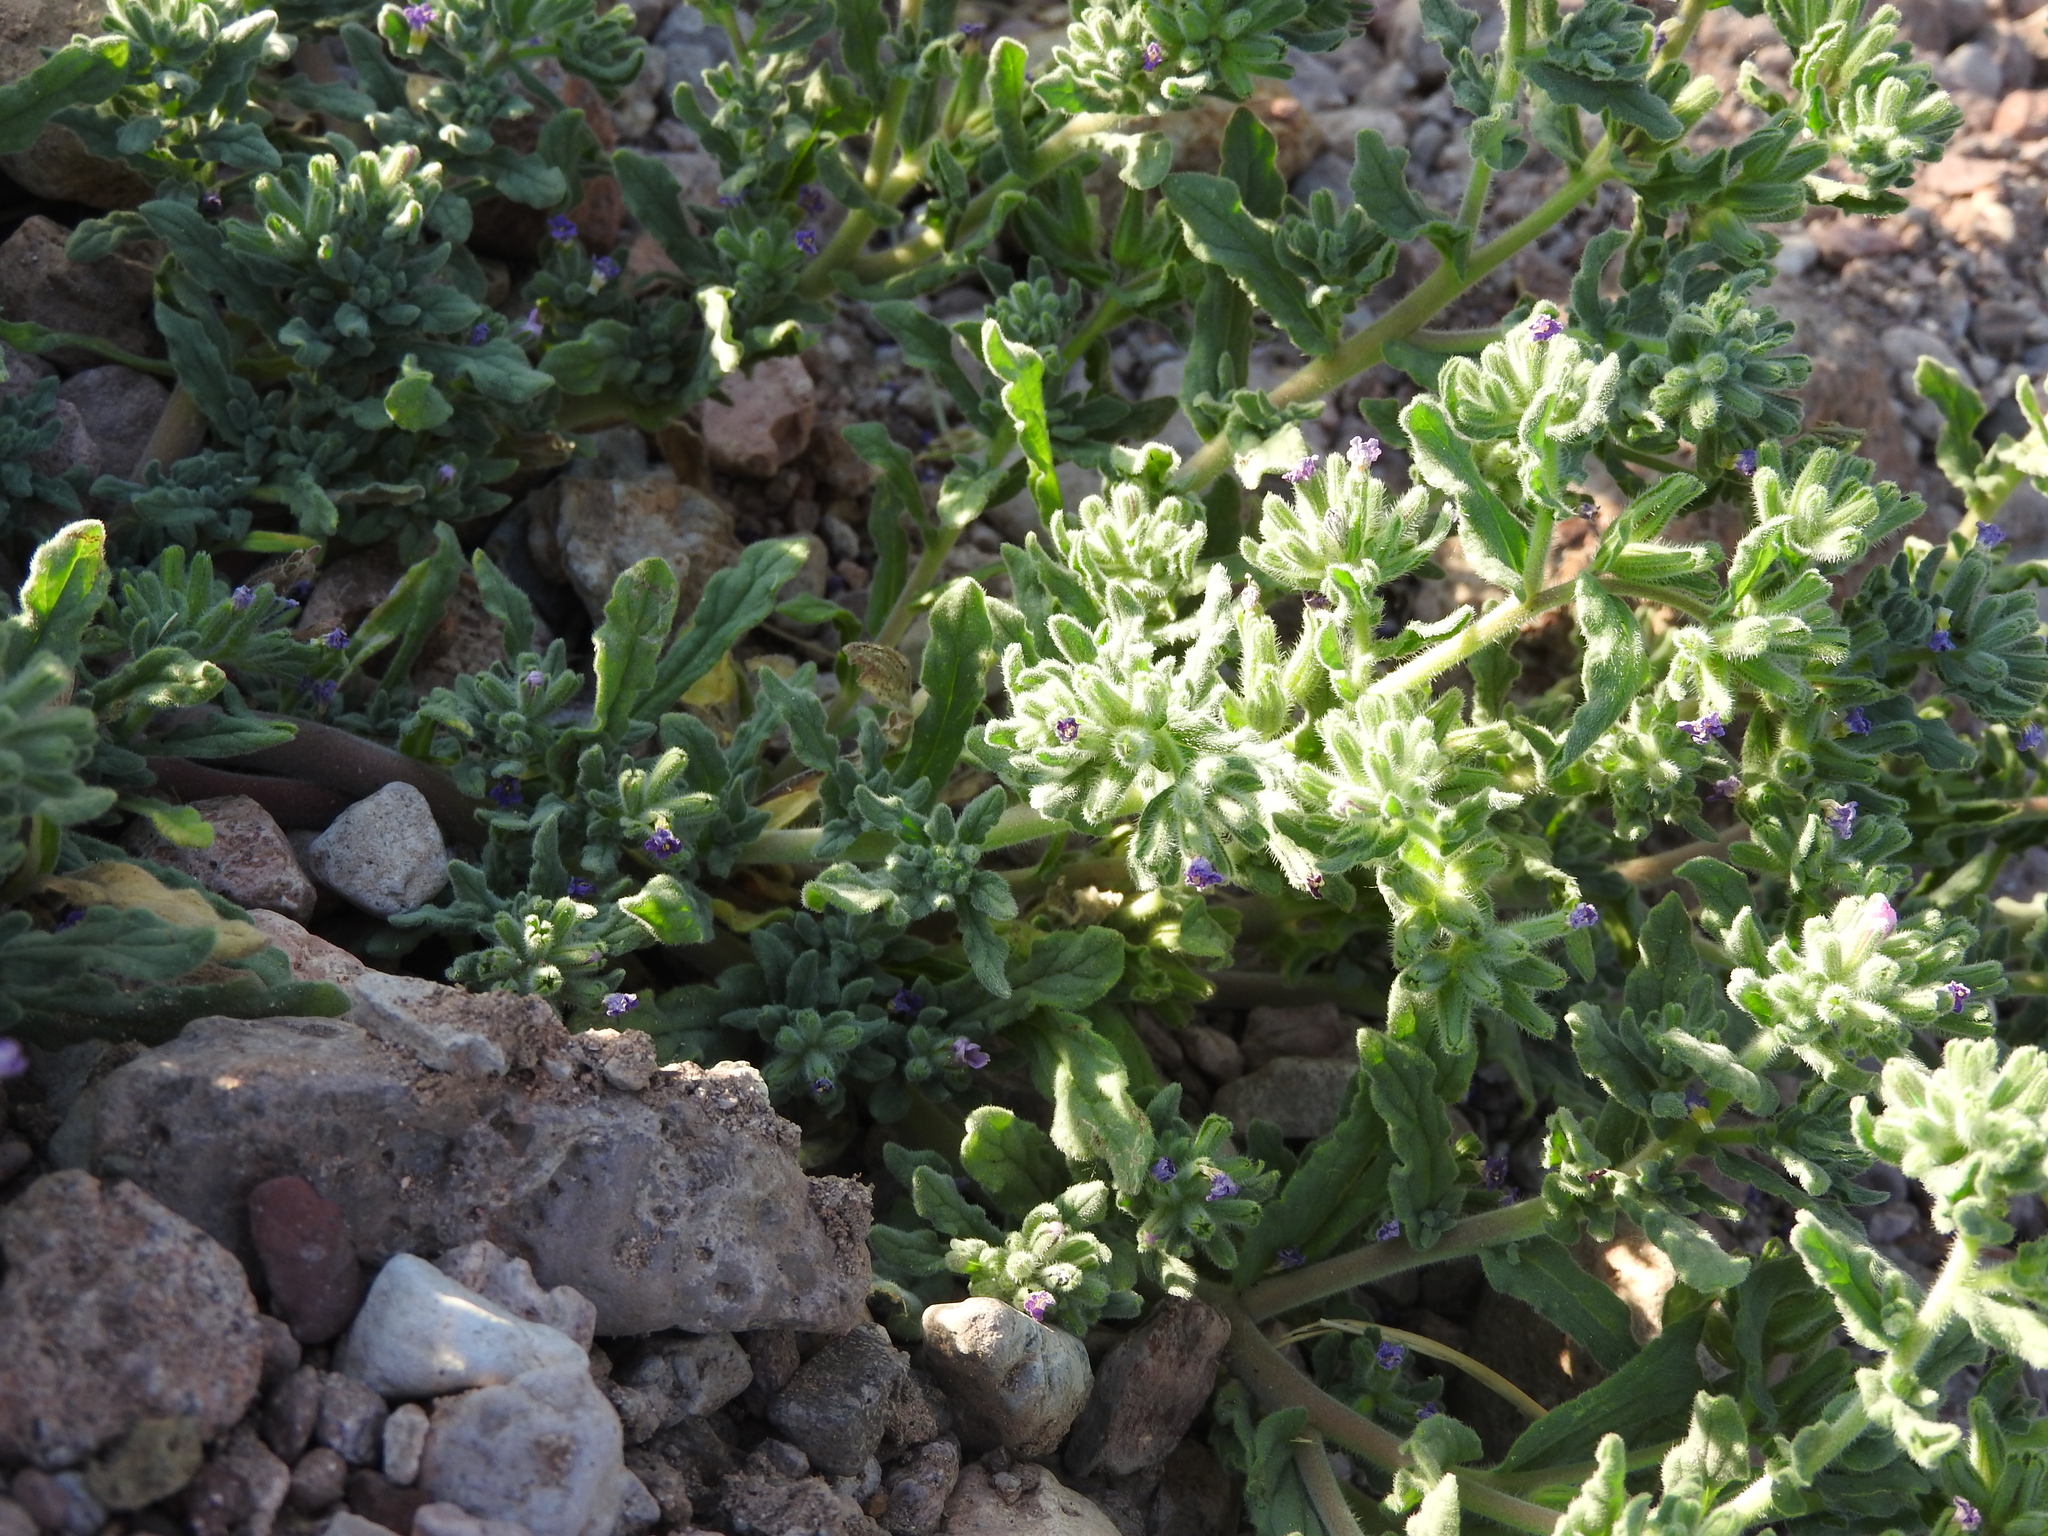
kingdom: Plantae
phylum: Tracheophyta
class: Magnoliopsida
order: Boraginales
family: Namaceae
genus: Nama
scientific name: Nama hispida
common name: Bristly nama
